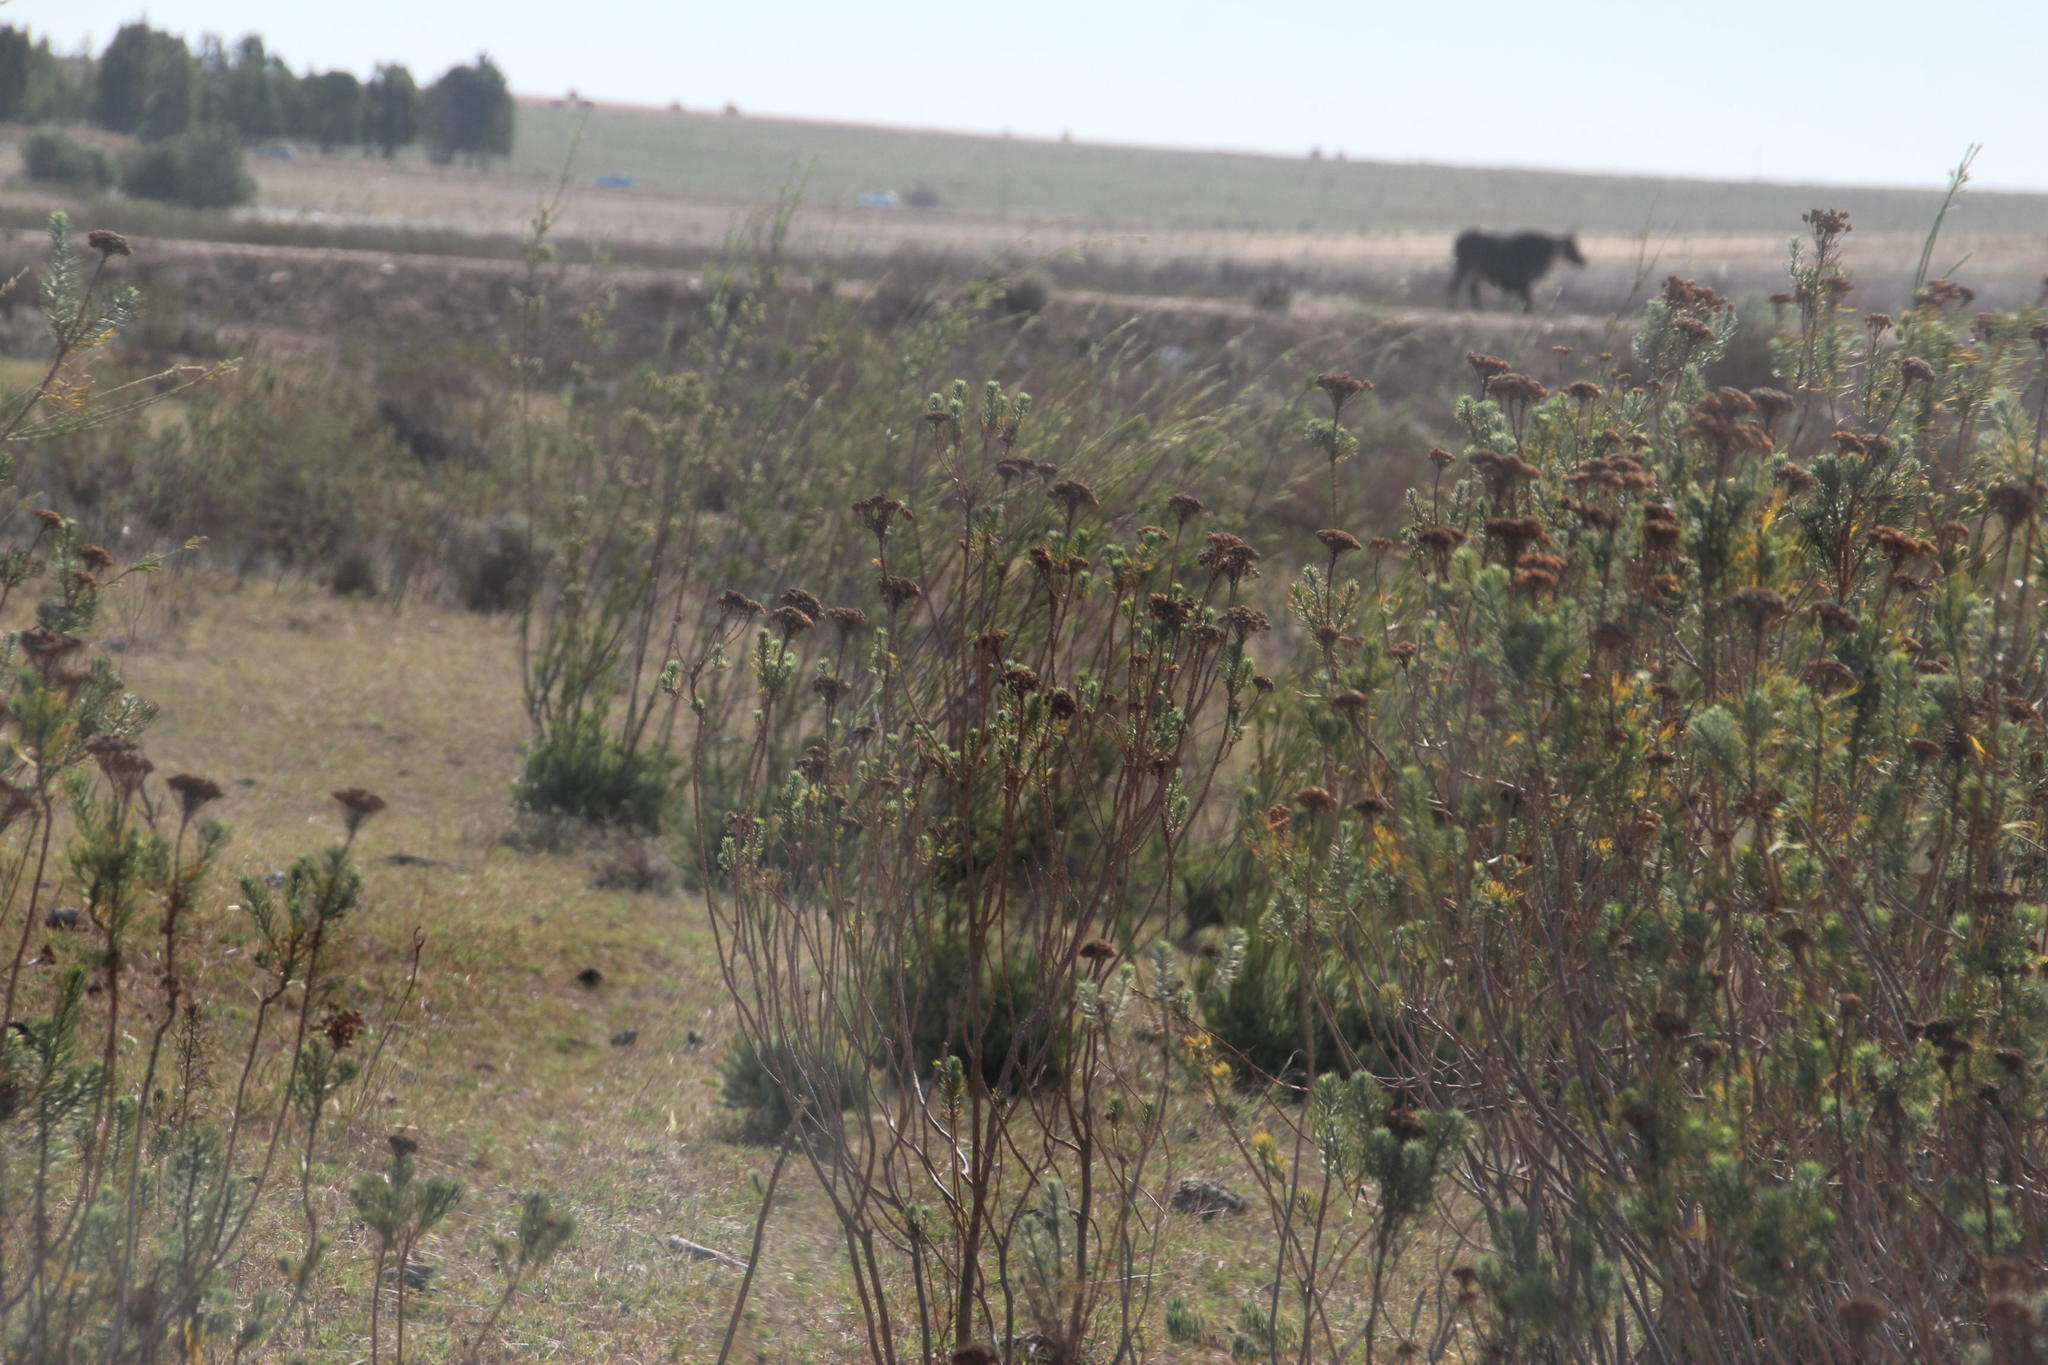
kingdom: Plantae
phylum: Tracheophyta
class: Magnoliopsida
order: Proteales
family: Proteaceae
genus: Leucadendron
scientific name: Leucadendron corymbosum
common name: Swartveld conebush
